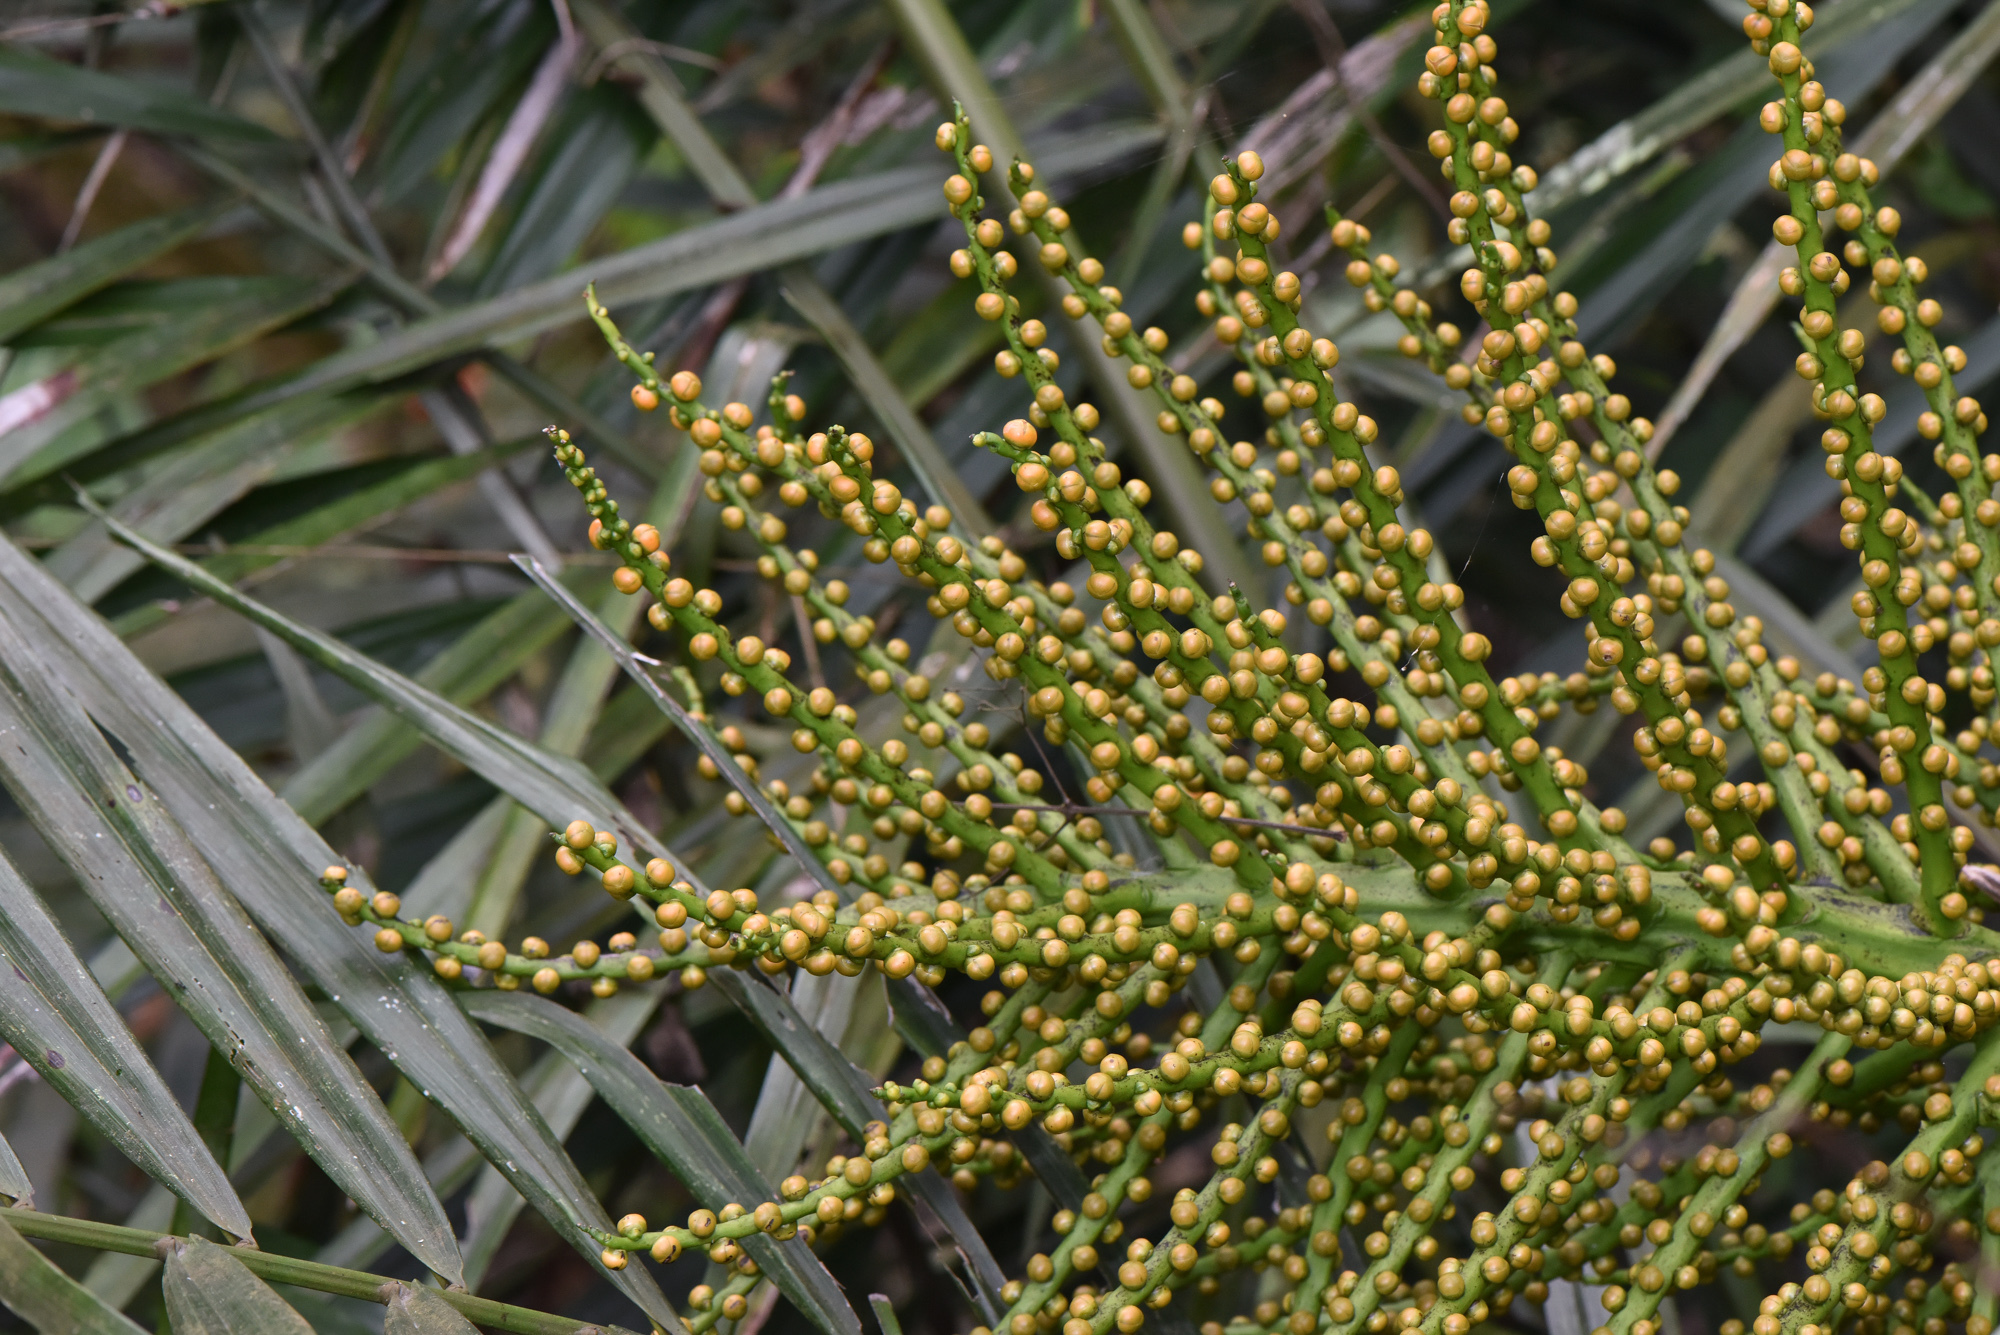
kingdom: Plantae
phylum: Tracheophyta
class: Liliopsida
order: Arecales
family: Arecaceae
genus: Arenga
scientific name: Arenga engleri
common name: Formosan sugar palm
